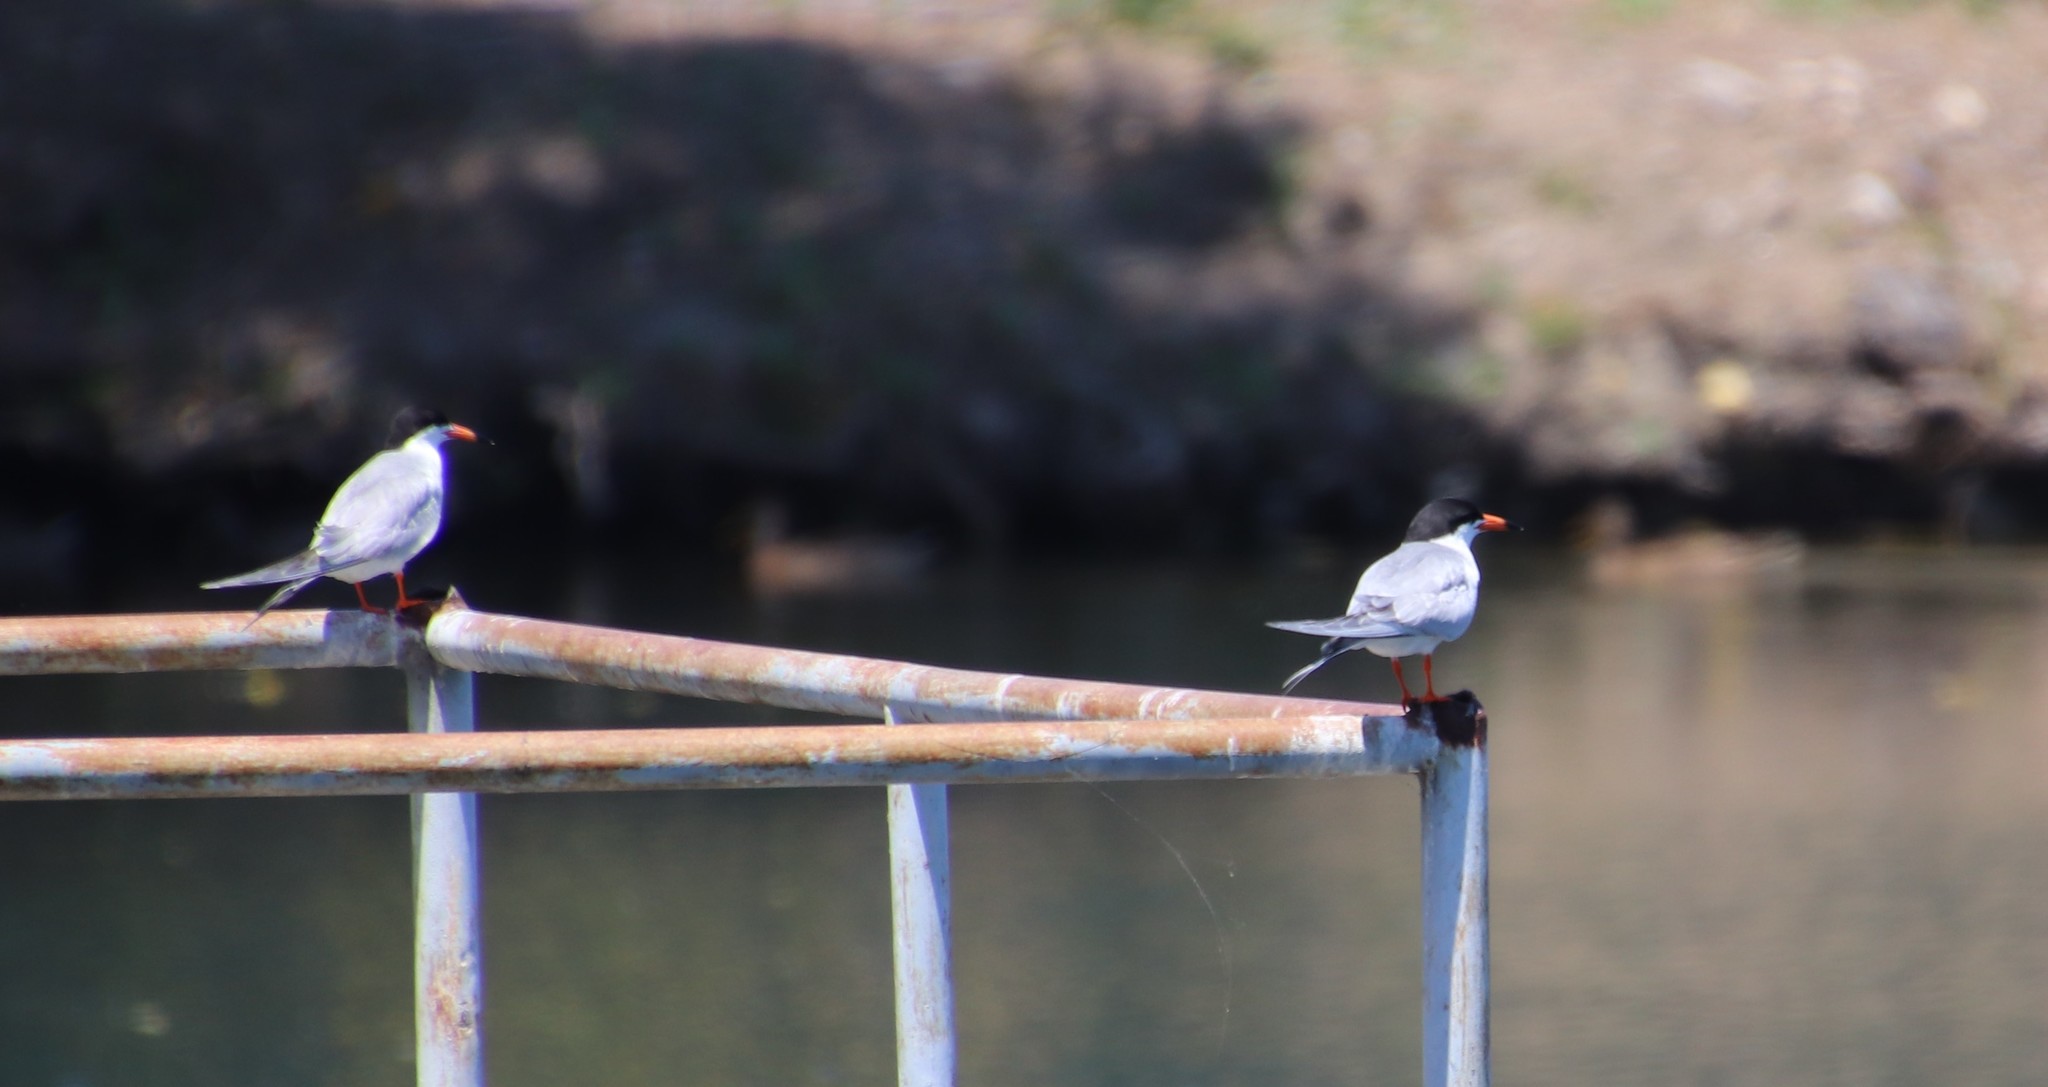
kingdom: Animalia
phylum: Chordata
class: Aves
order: Charadriiformes
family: Laridae
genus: Sterna
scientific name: Sterna forsteri
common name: Forster's tern
